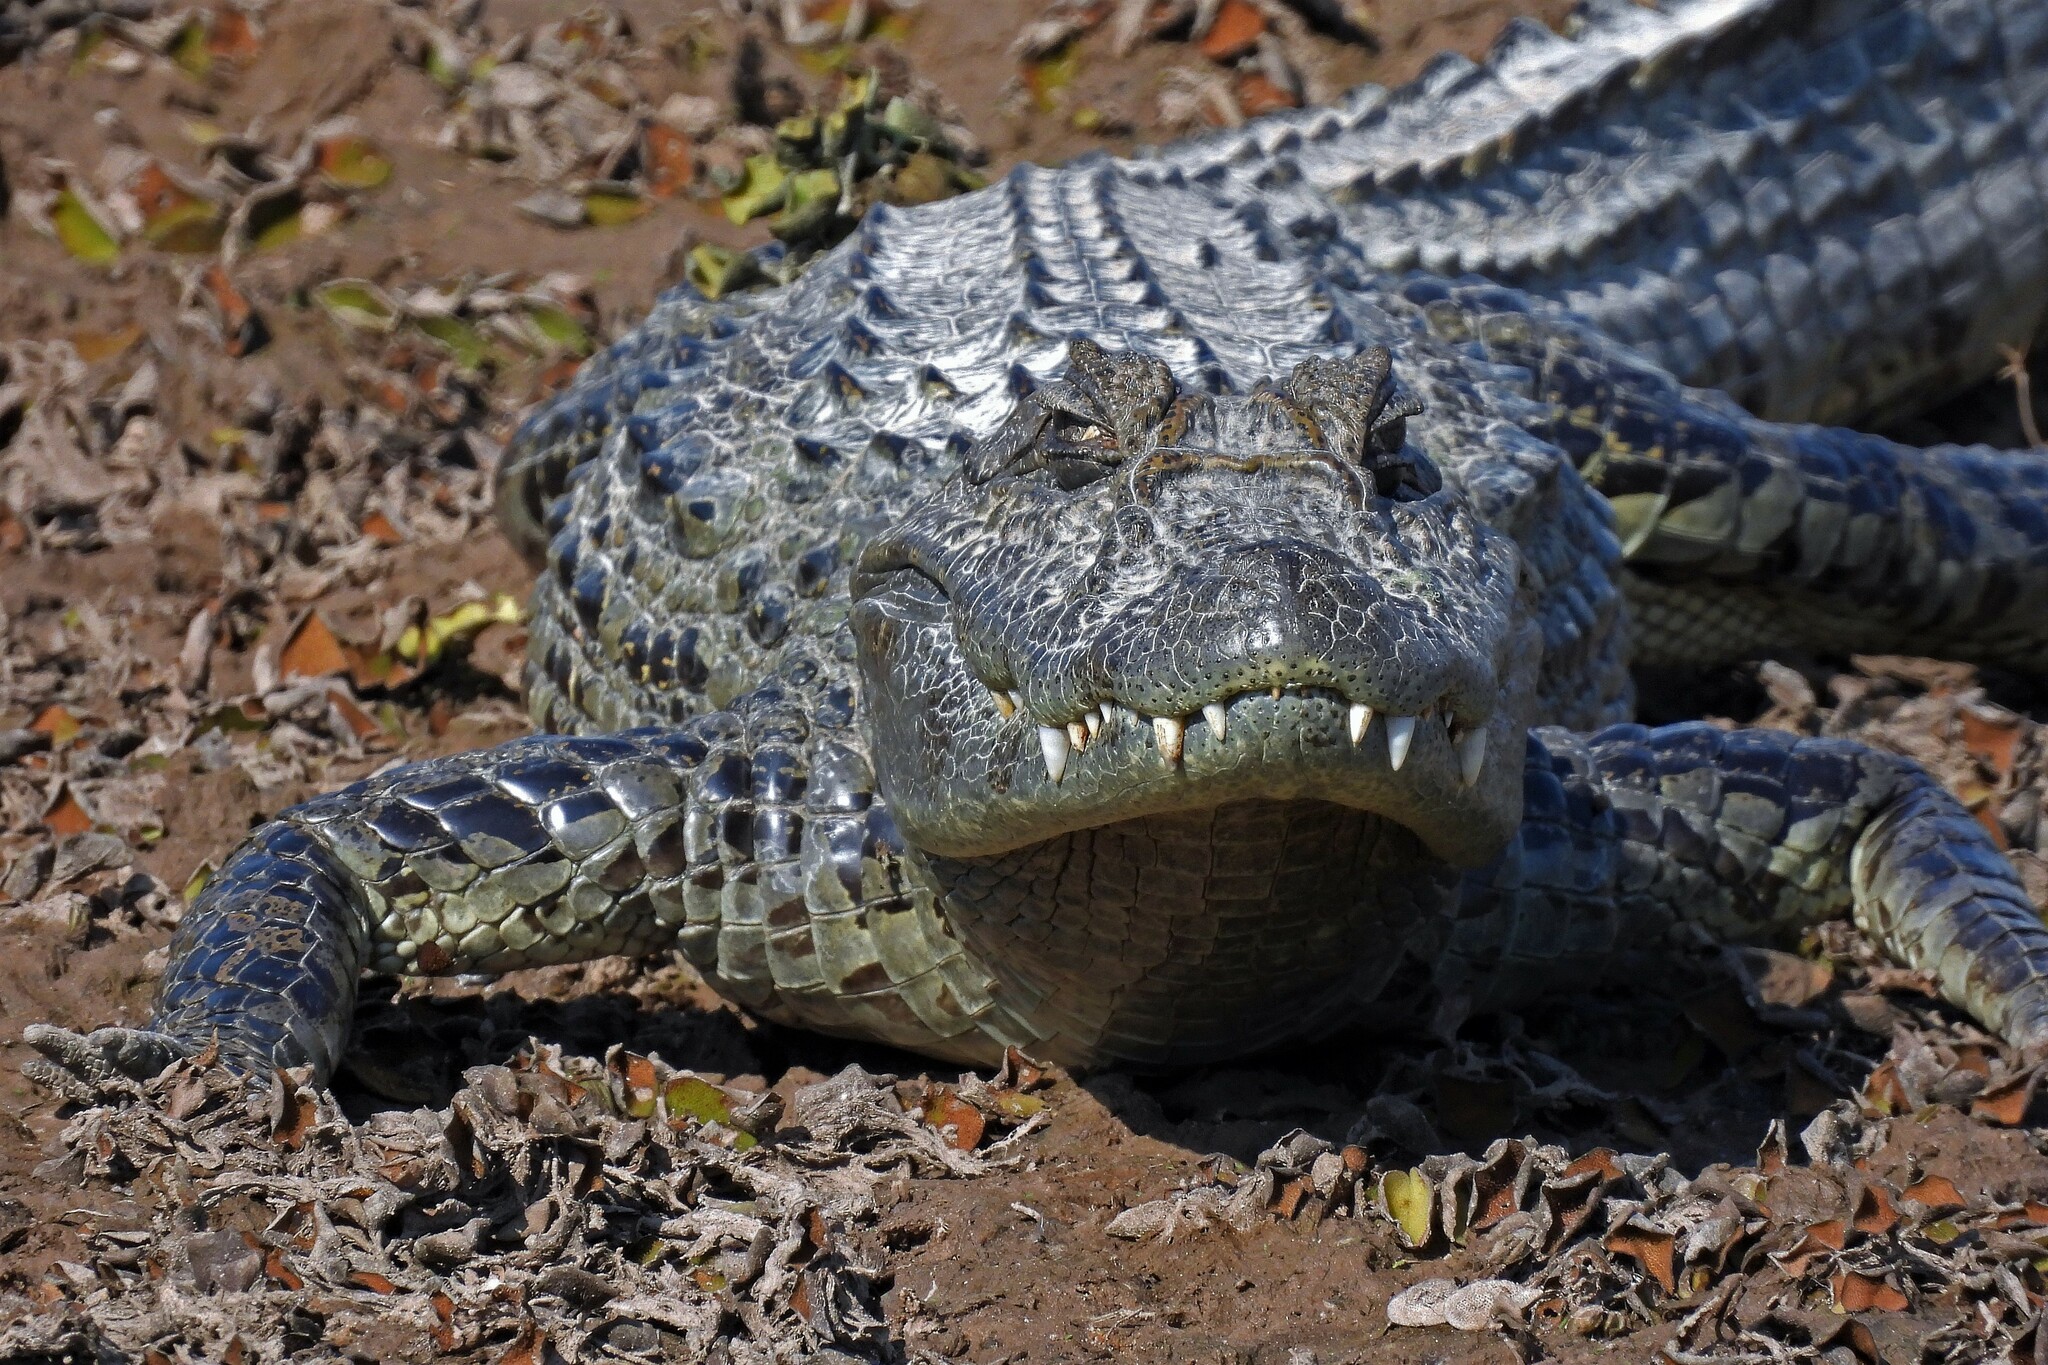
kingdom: Animalia
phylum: Chordata
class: Crocodylia
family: Alligatoridae
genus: Caiman
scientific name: Caiman latirostris
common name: Broad-snouted caiman
